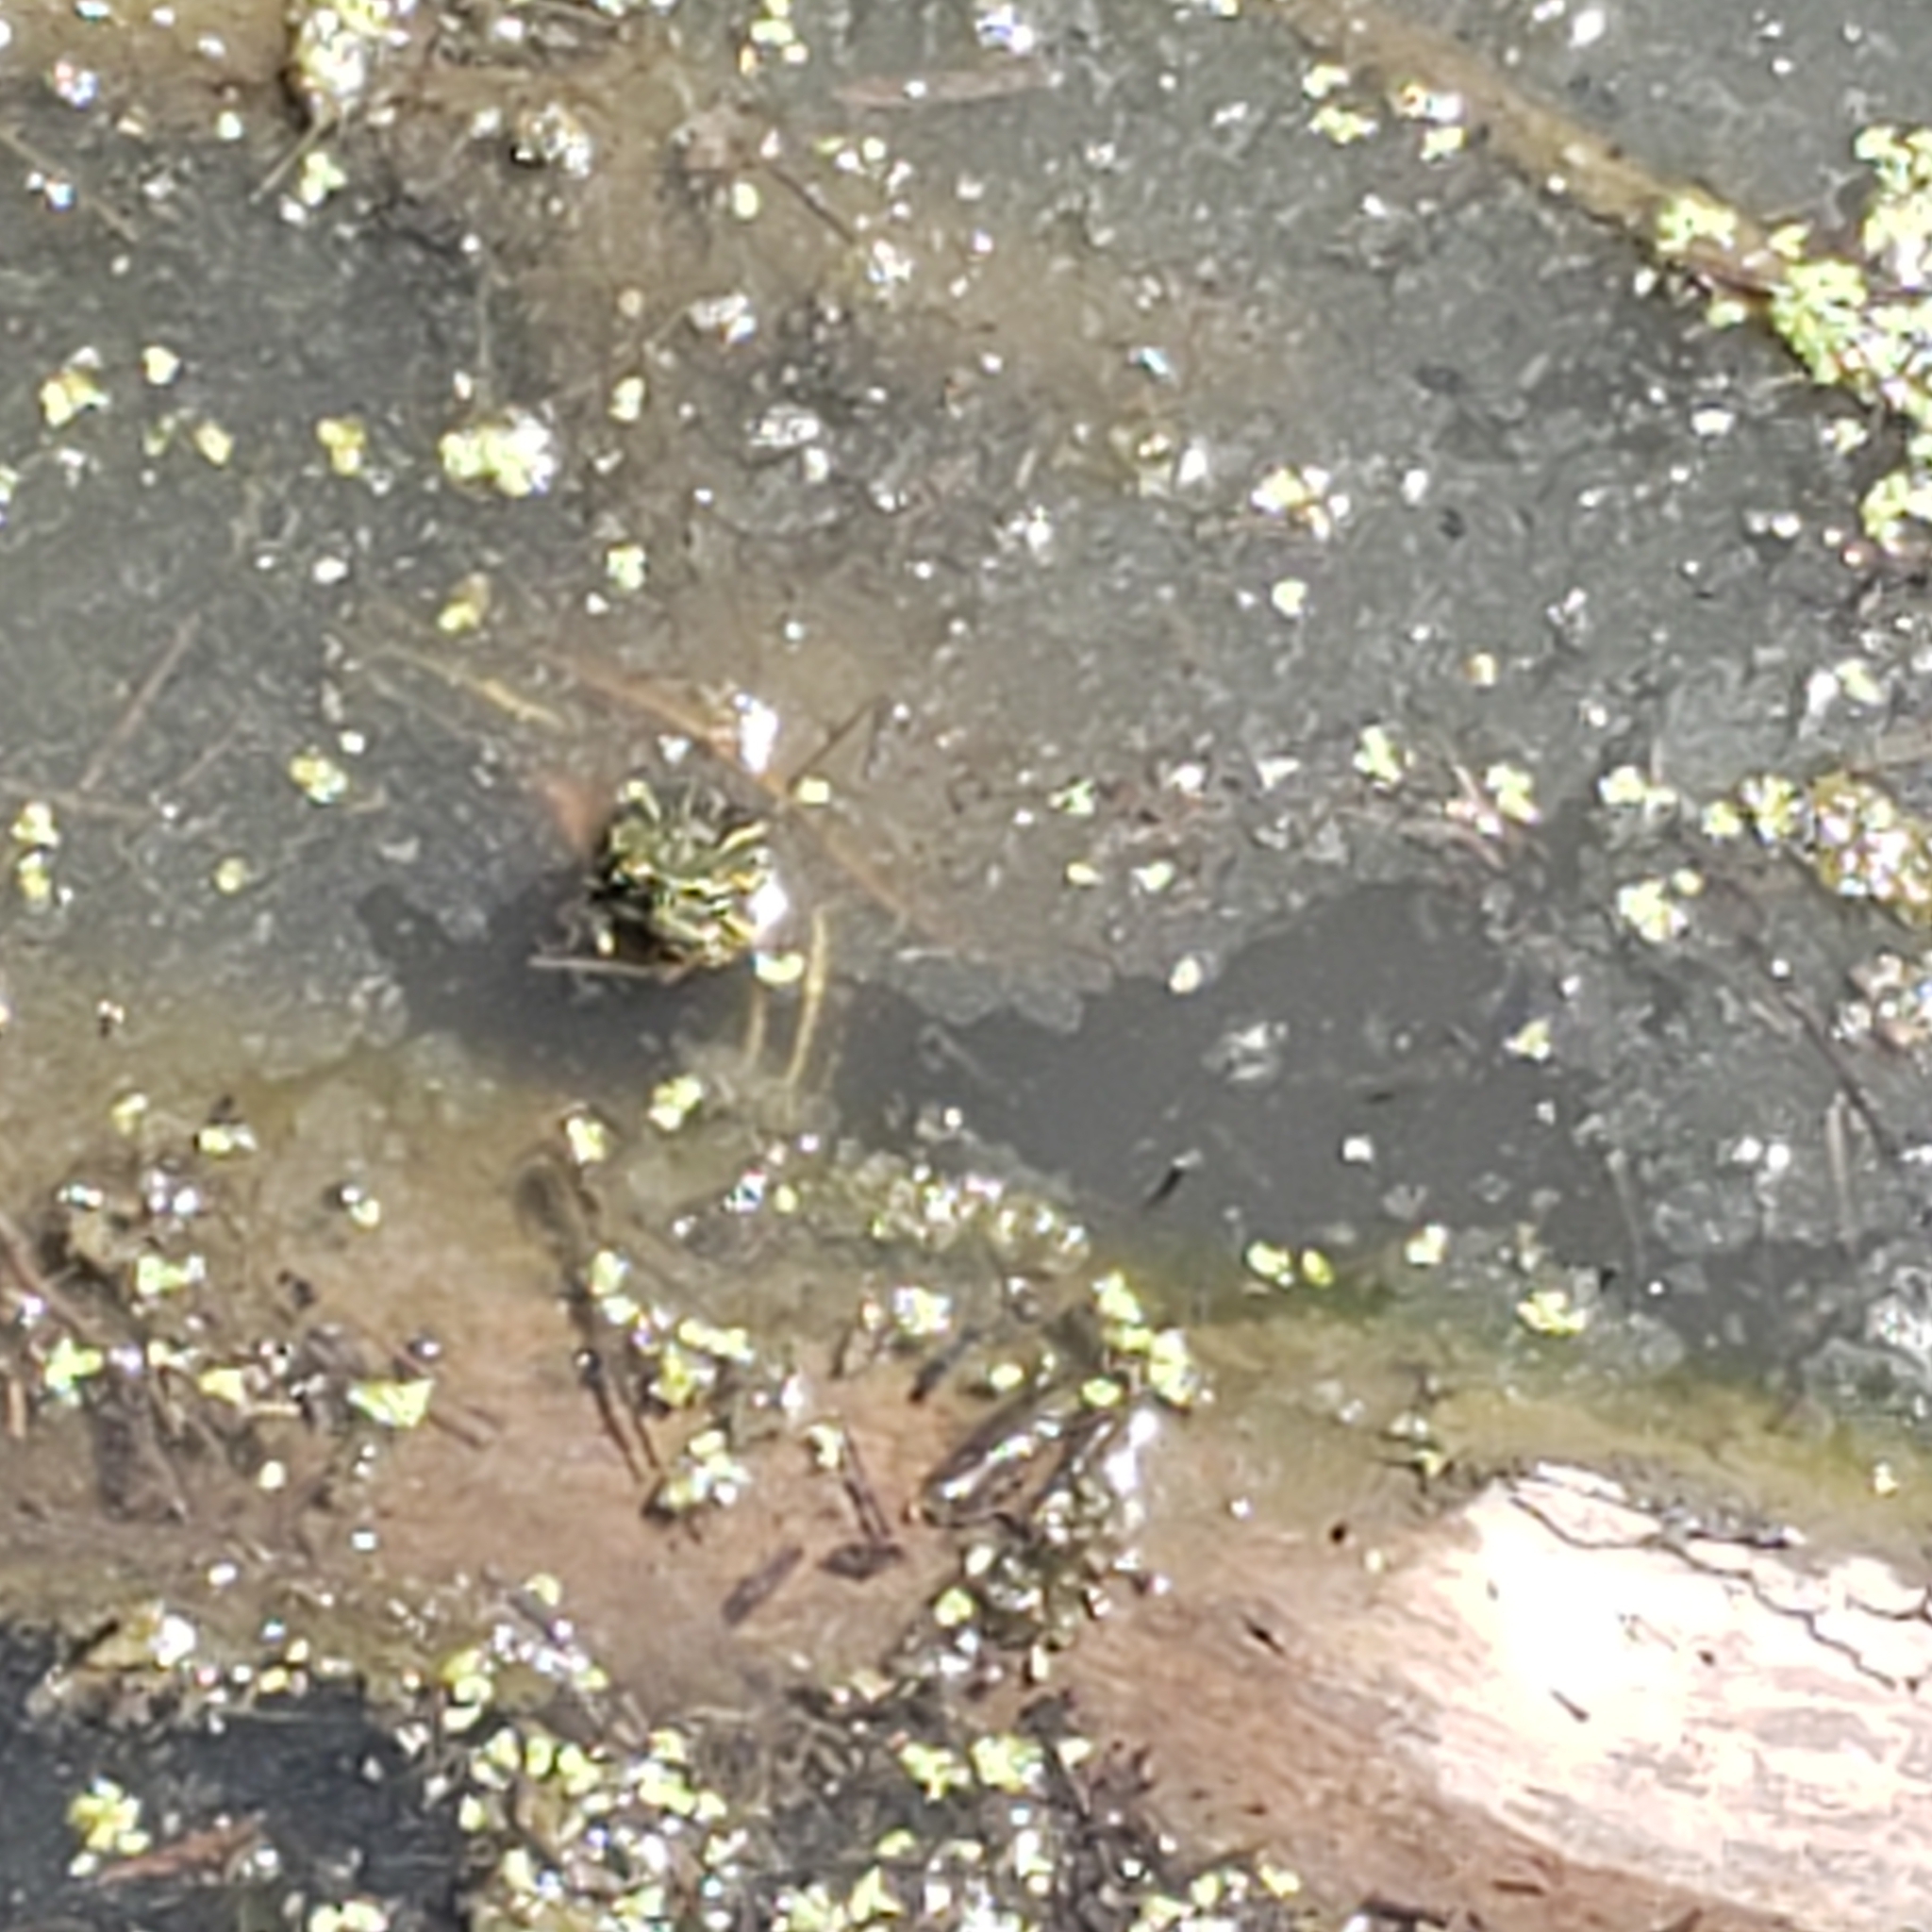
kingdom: Animalia
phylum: Chordata
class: Testudines
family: Emydidae
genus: Chrysemys
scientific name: Chrysemys picta
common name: Painted turtle
